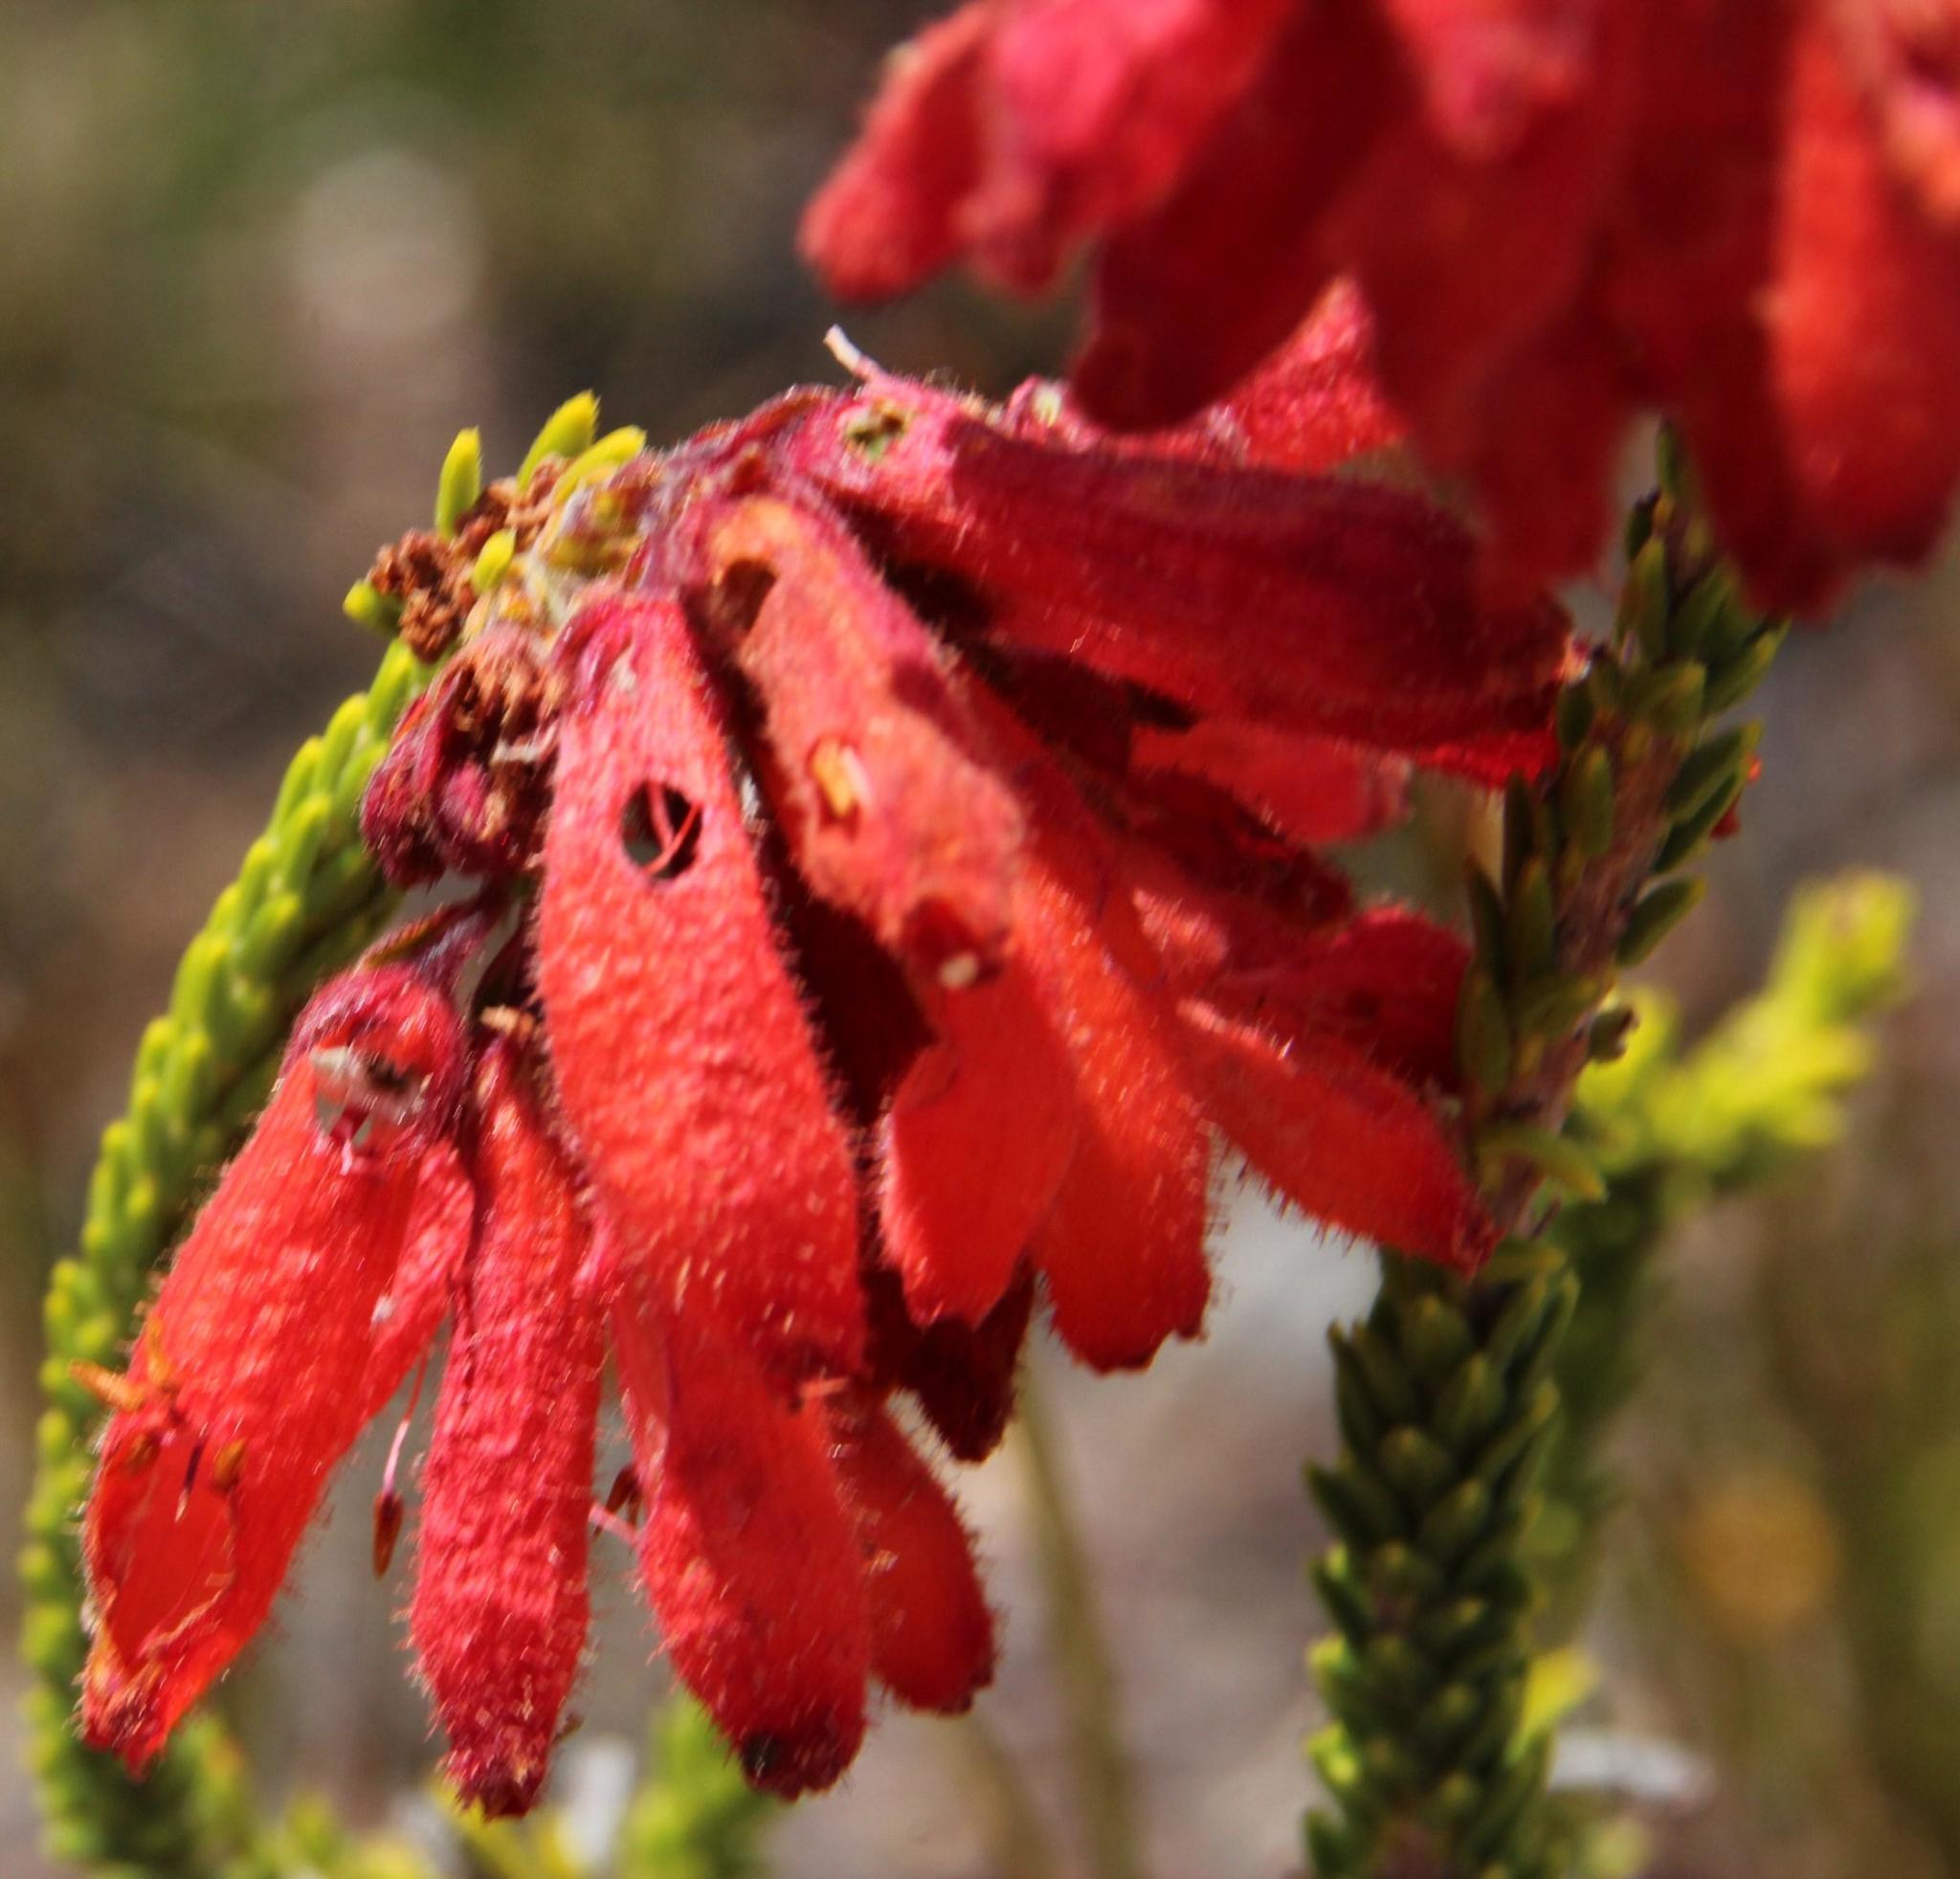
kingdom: Plantae
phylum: Tracheophyta
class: Magnoliopsida
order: Ericales
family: Ericaceae
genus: Erica
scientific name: Erica cerinthoides
